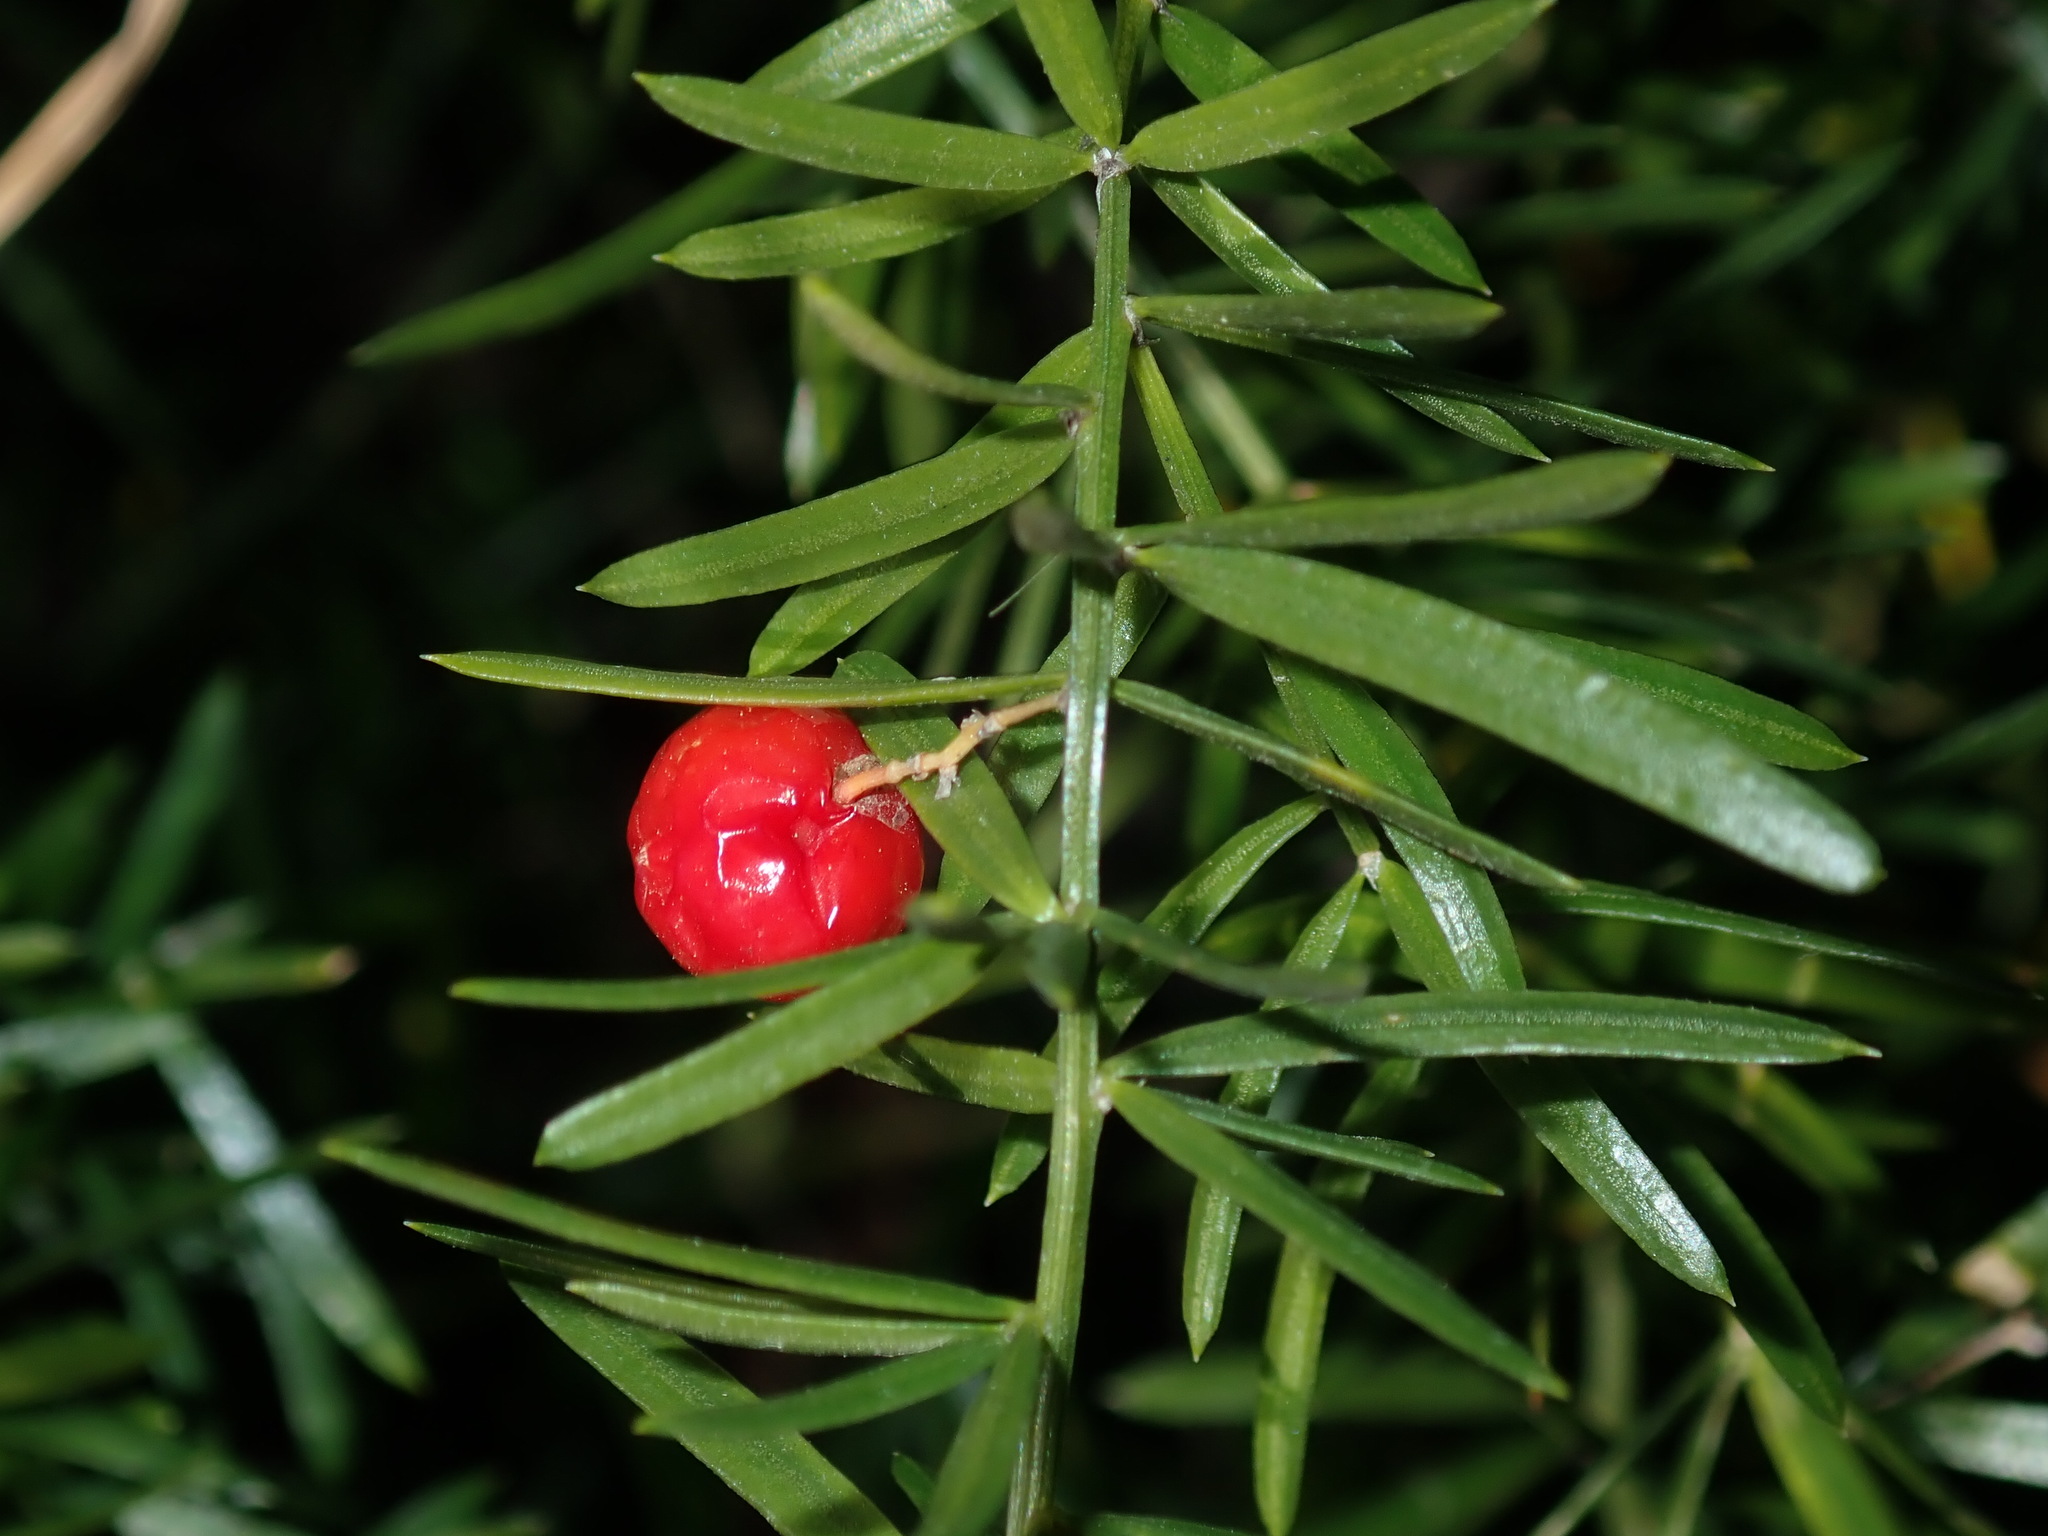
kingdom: Plantae
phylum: Tracheophyta
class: Liliopsida
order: Asparagales
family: Asparagaceae
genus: Asparagus
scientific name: Asparagus aethiopicus
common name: Sprenger's asparagus fern
